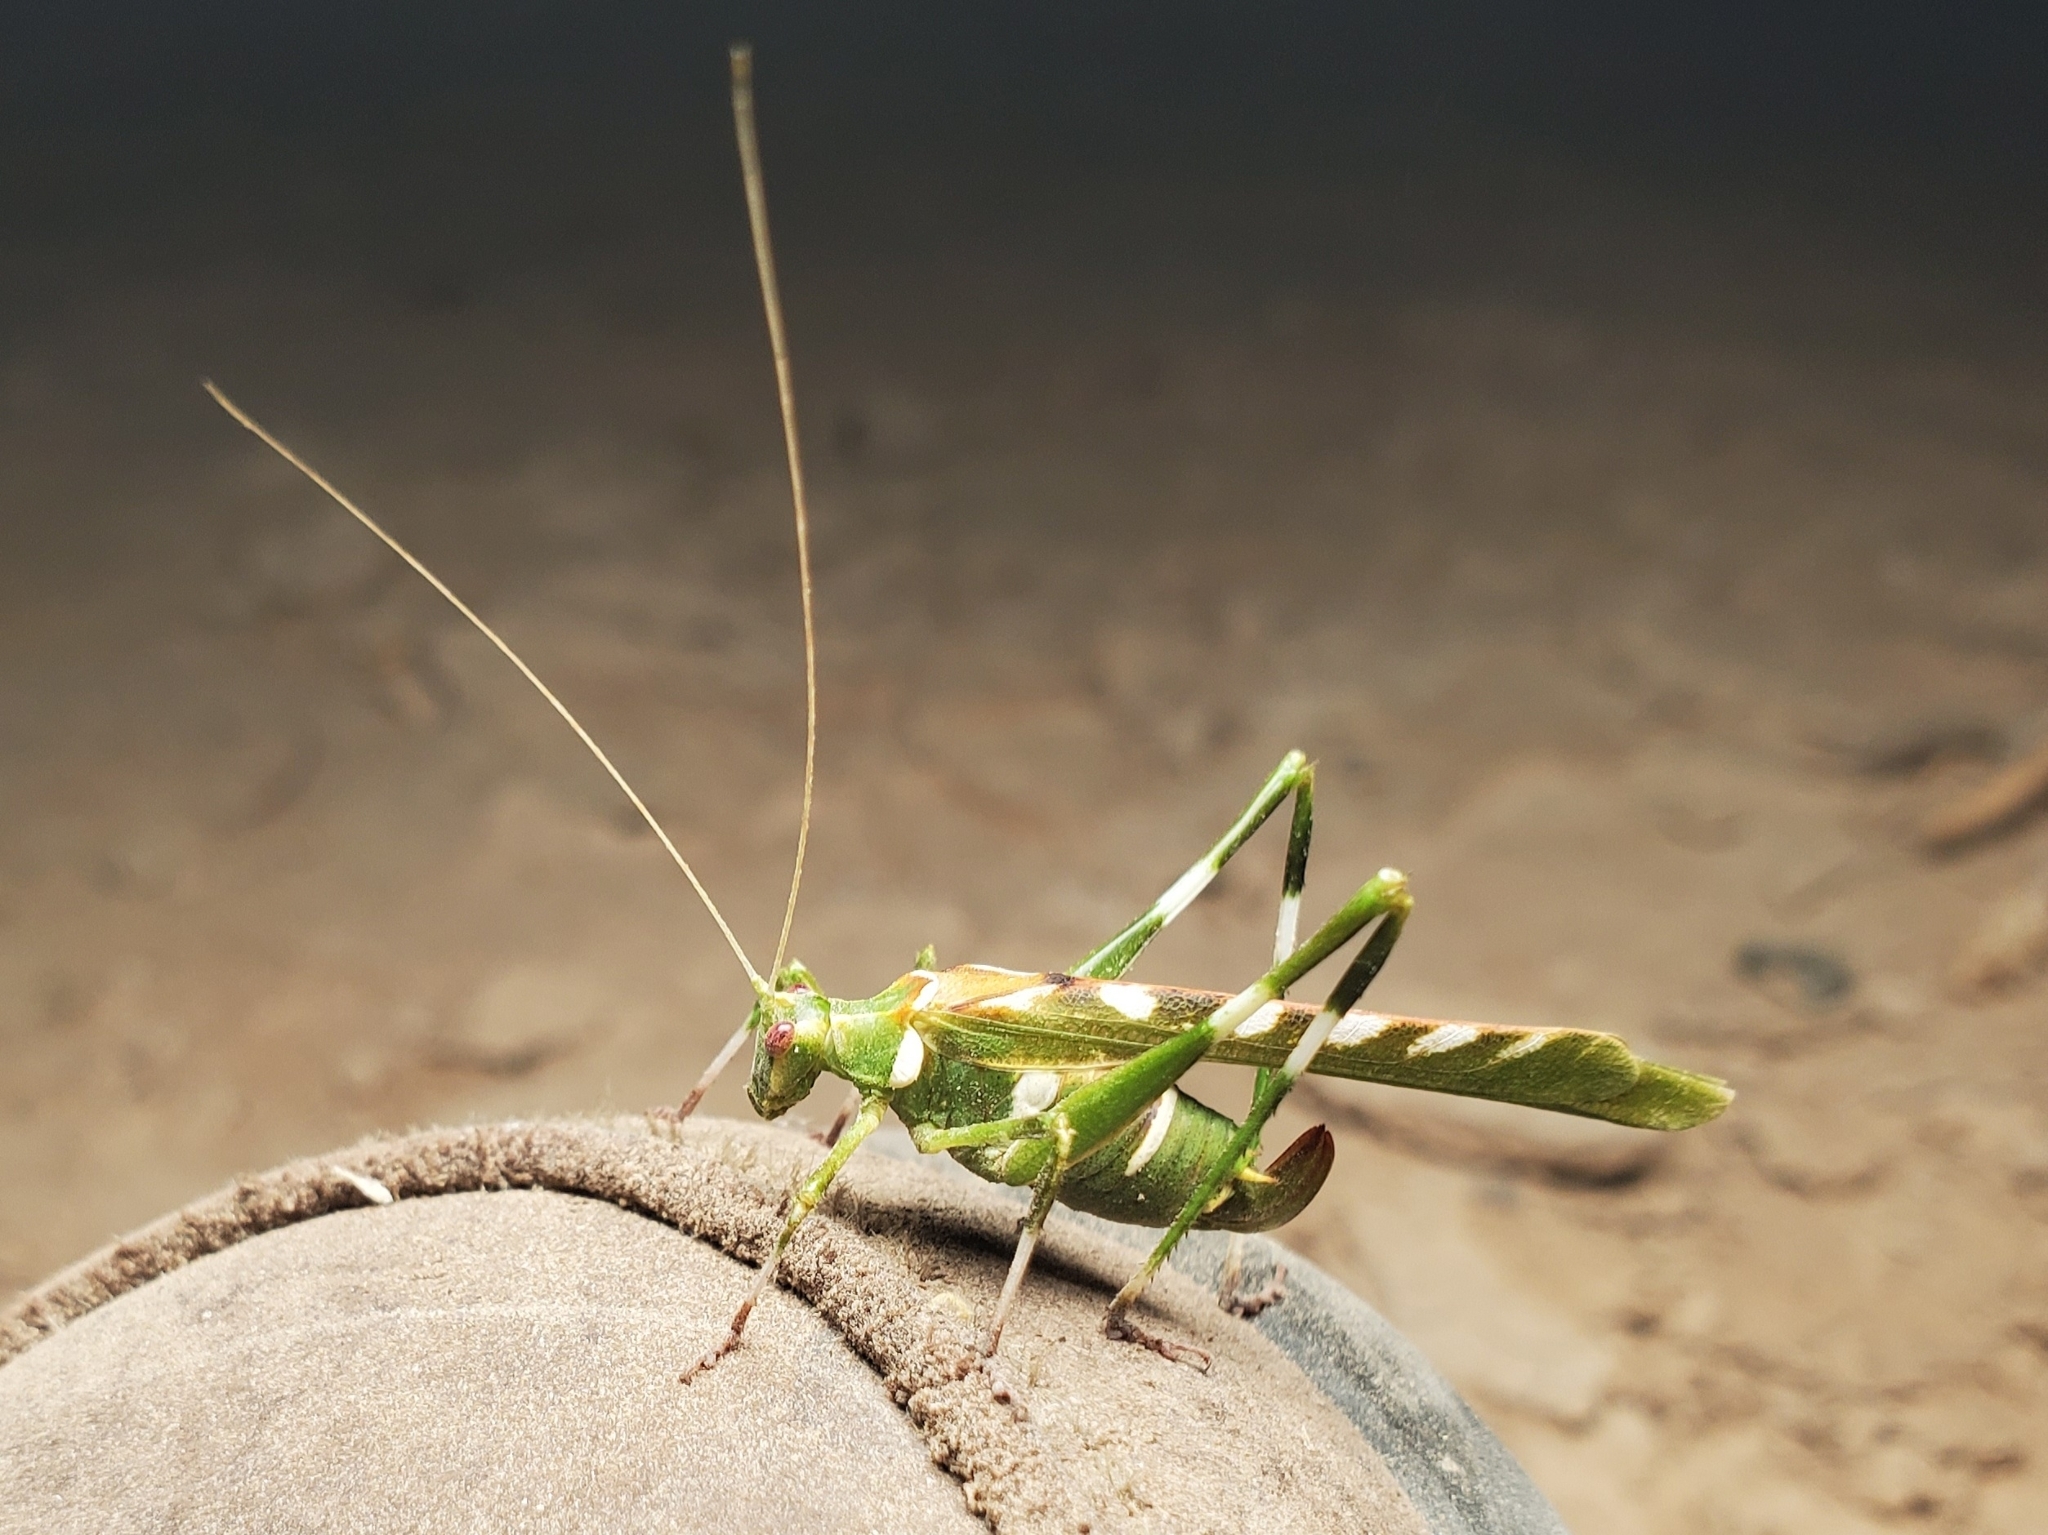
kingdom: Animalia
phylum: Arthropoda
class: Insecta
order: Orthoptera
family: Tettigoniidae
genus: Insara
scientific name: Insara covilleae
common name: Creosote bush katydid
